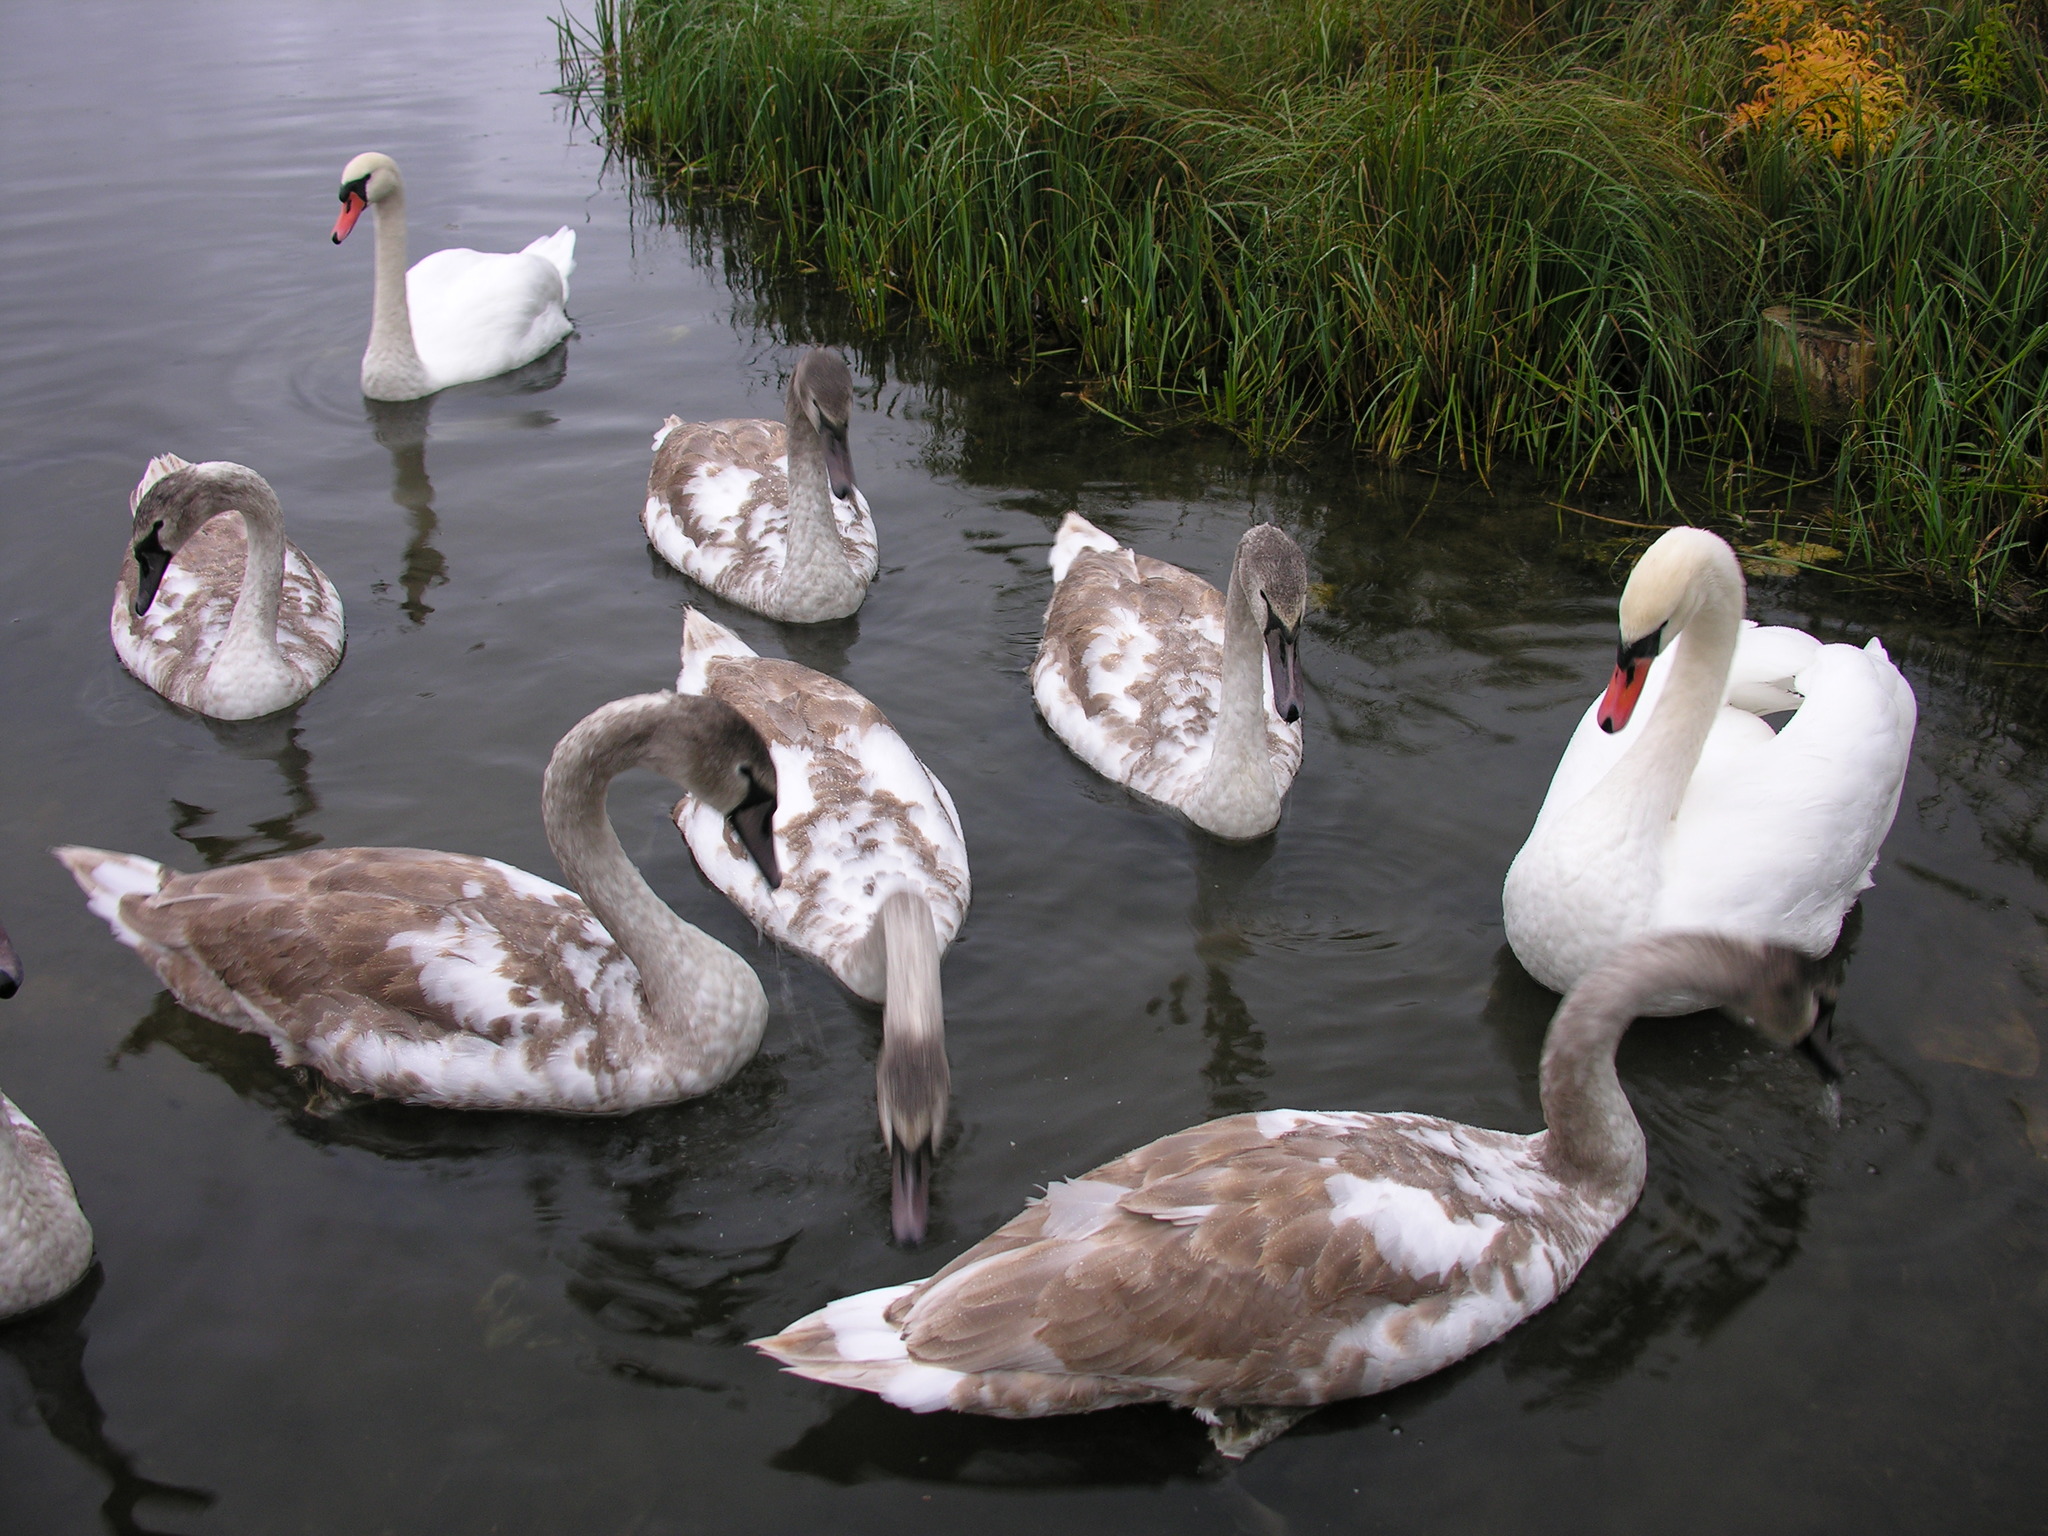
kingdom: Animalia
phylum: Chordata
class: Aves
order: Anseriformes
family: Anatidae
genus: Cygnus
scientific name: Cygnus olor
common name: Mute swan
